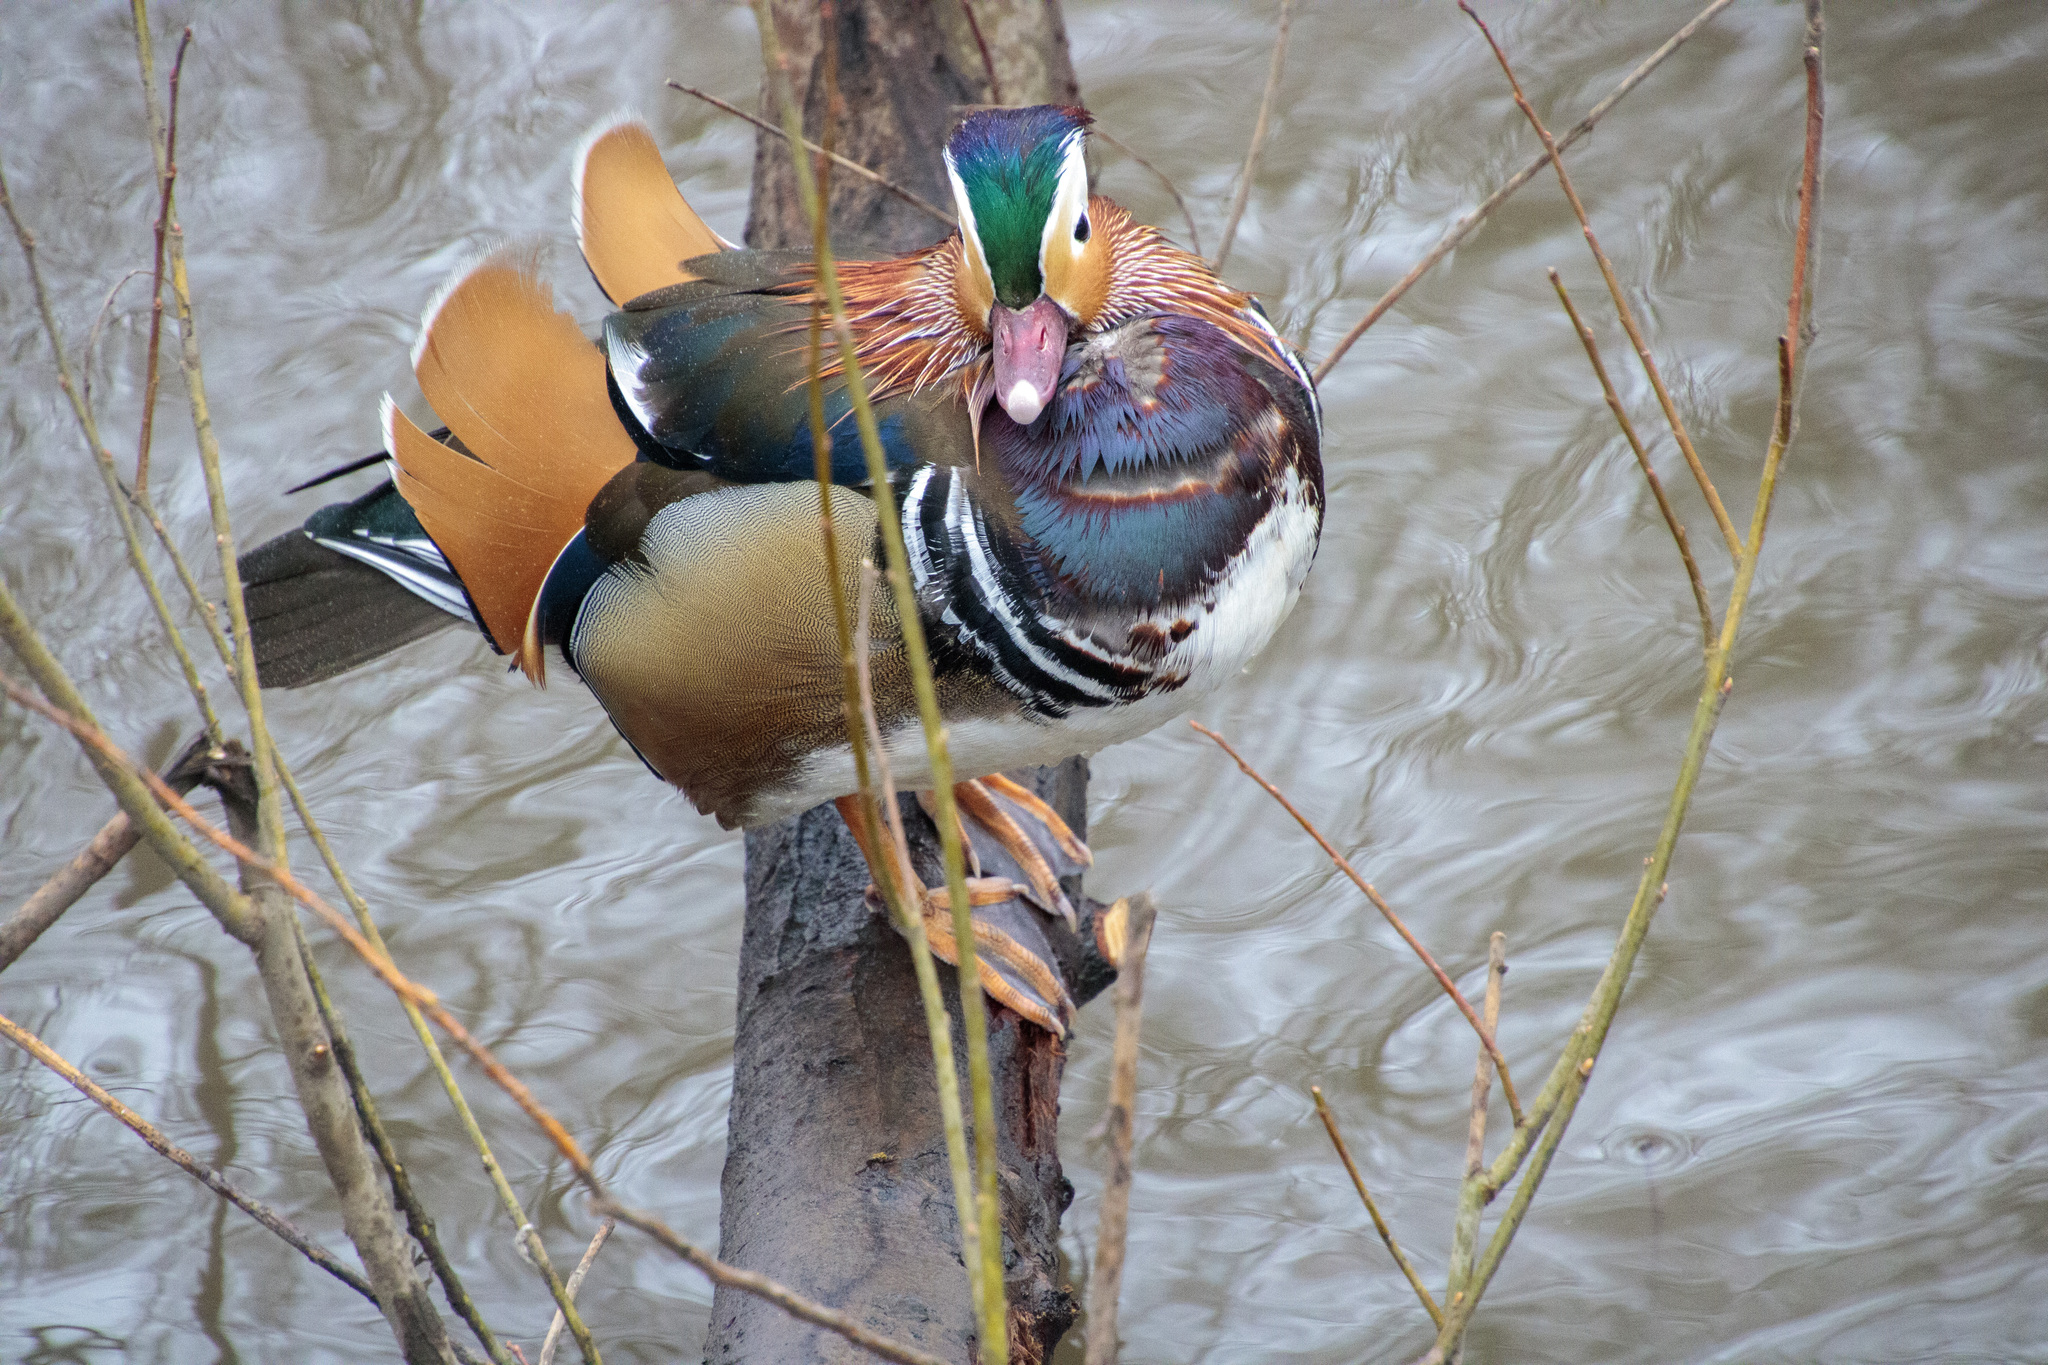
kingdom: Animalia
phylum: Chordata
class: Aves
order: Anseriformes
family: Anatidae
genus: Aix
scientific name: Aix galericulata
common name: Mandarin duck
